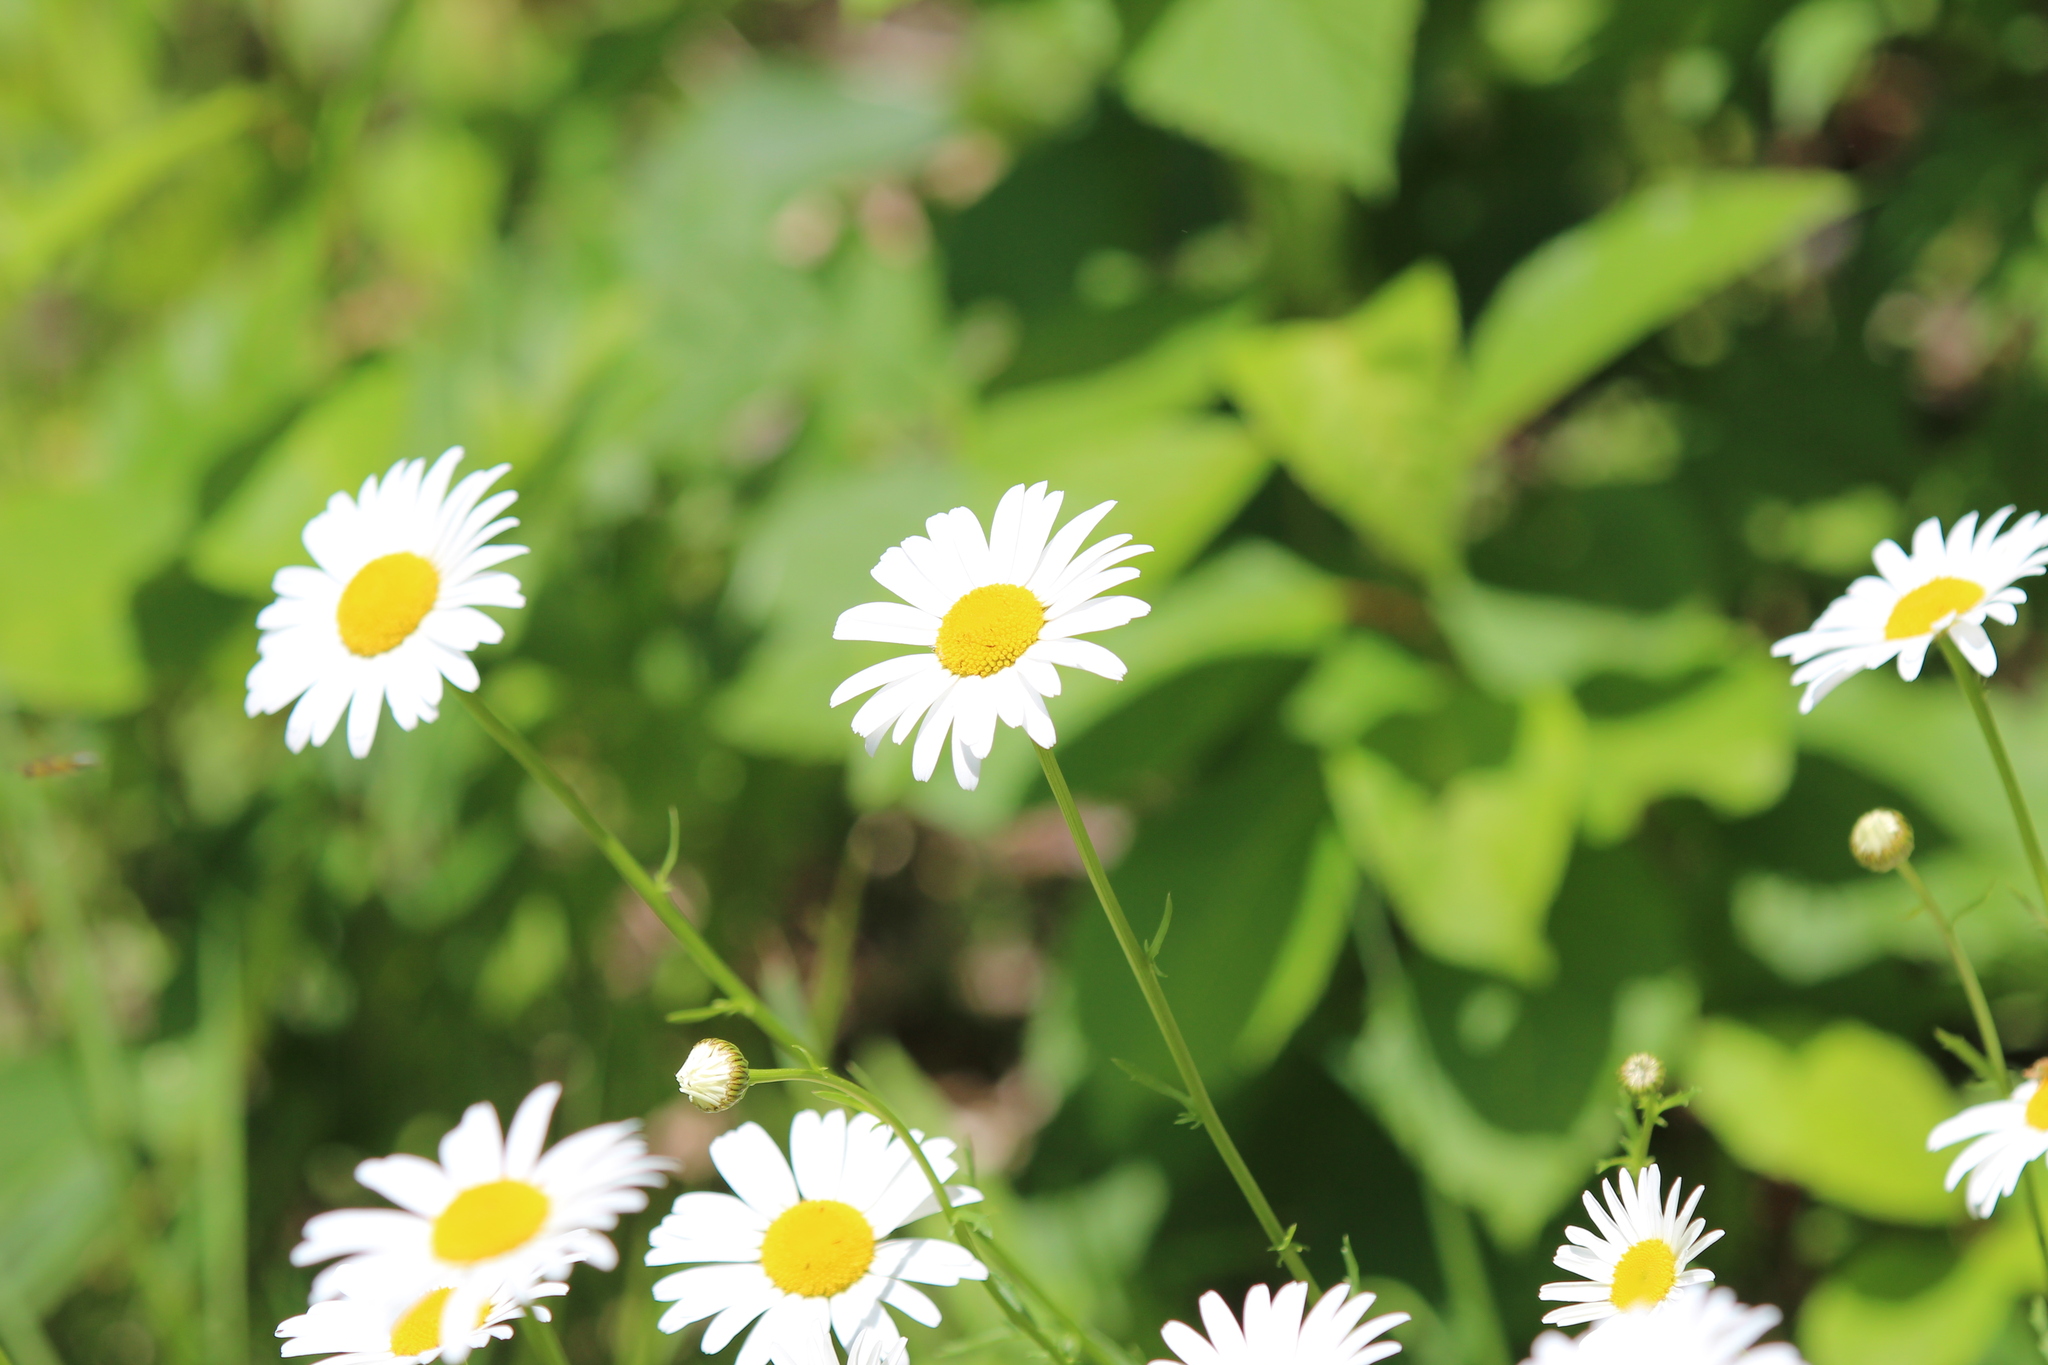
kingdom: Plantae
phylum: Tracheophyta
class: Magnoliopsida
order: Asterales
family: Asteraceae
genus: Leucanthemum
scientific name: Leucanthemum vulgare
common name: Oxeye daisy
